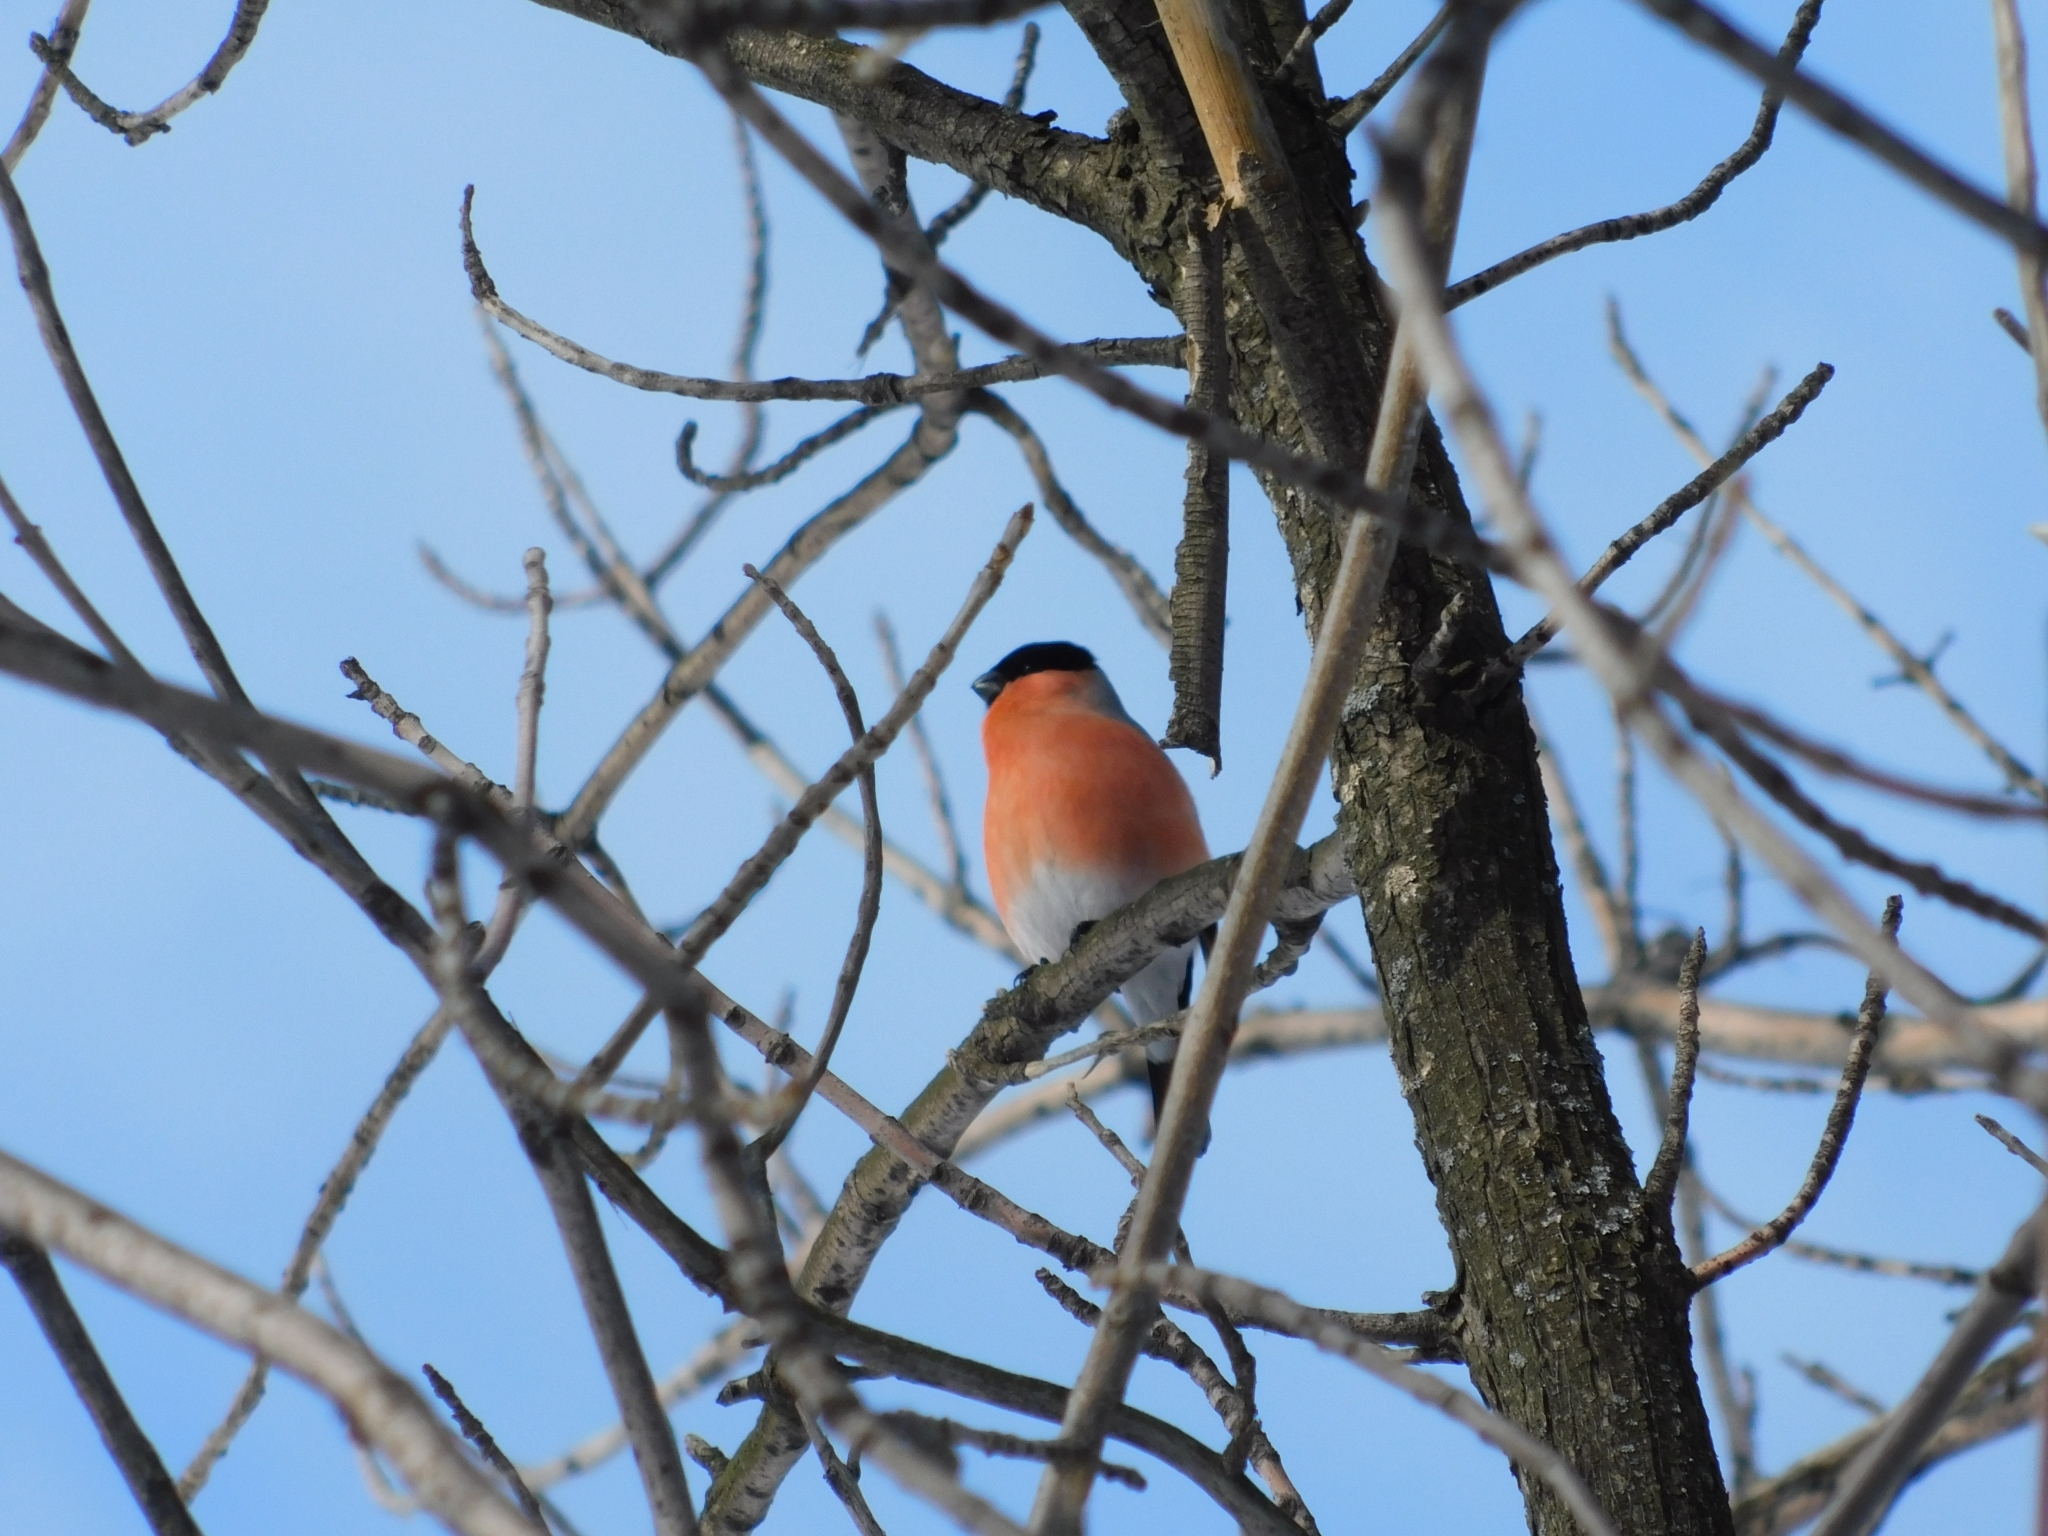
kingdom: Animalia
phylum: Chordata
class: Aves
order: Passeriformes
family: Fringillidae
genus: Pyrrhula
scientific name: Pyrrhula pyrrhula
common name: Eurasian bullfinch
